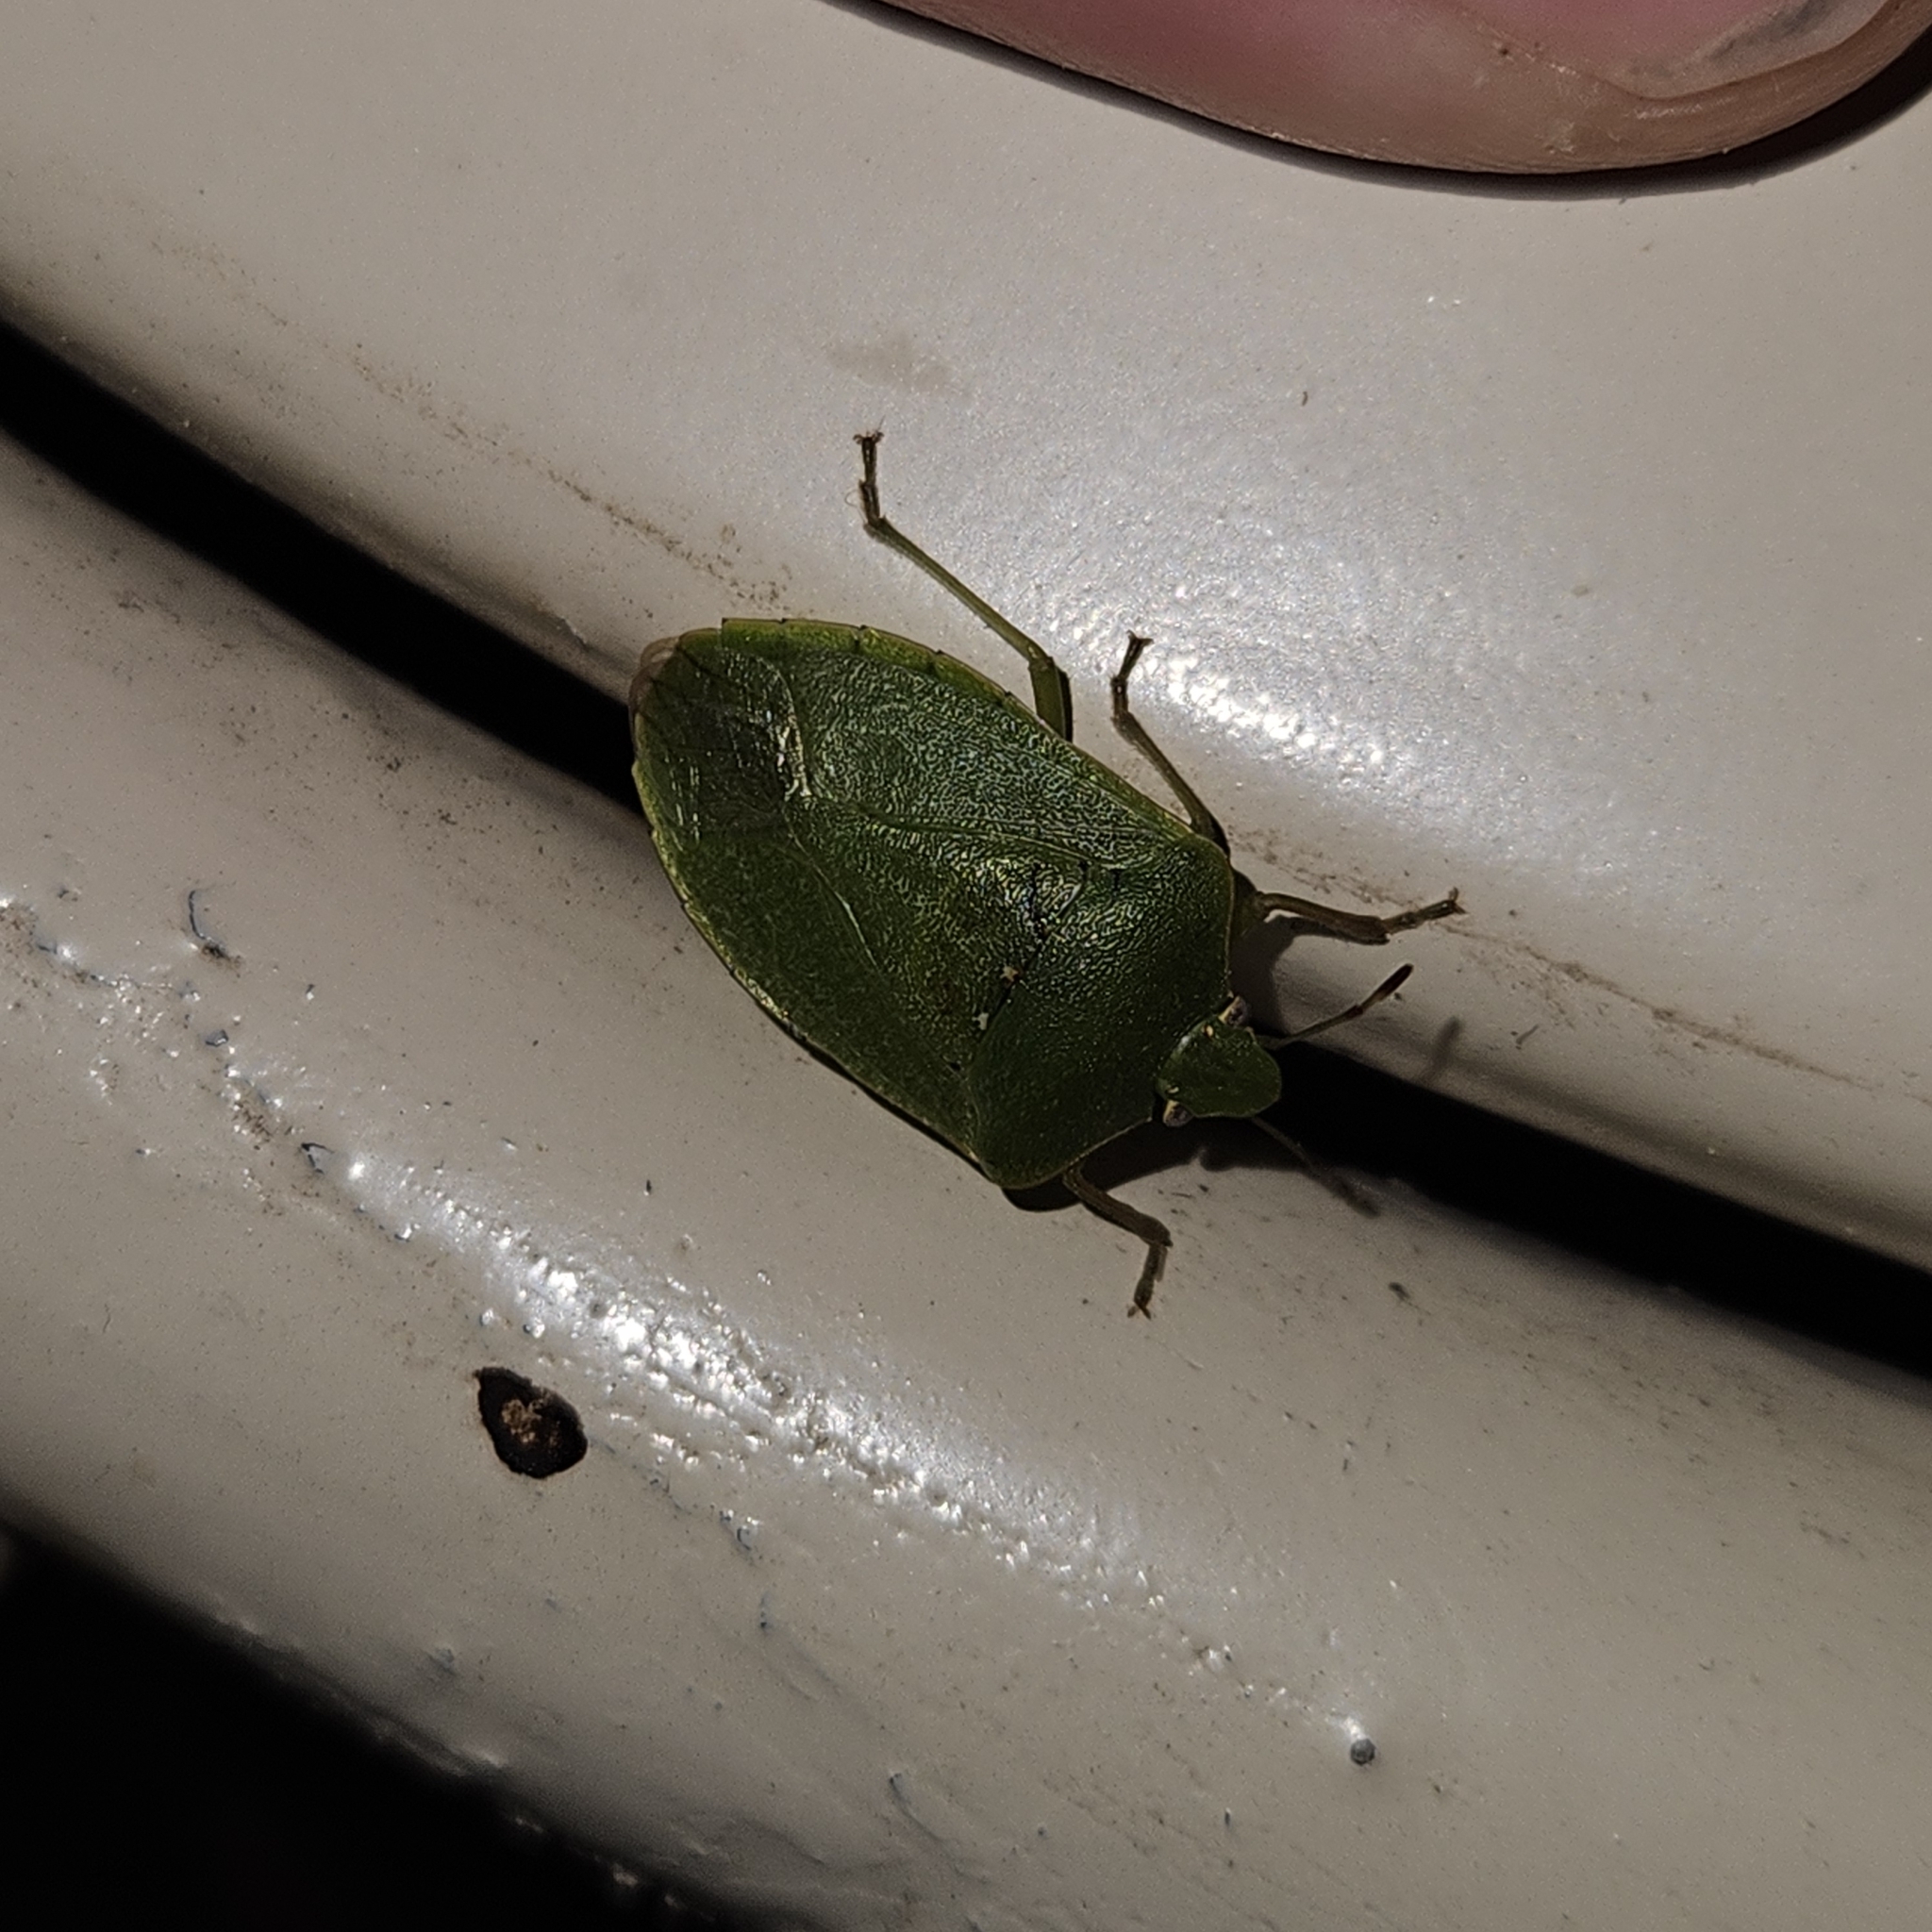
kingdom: Animalia
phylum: Arthropoda
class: Insecta
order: Hemiptera
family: Pentatomidae
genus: Nezara
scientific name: Nezara viridula
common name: Southern green stink bug
